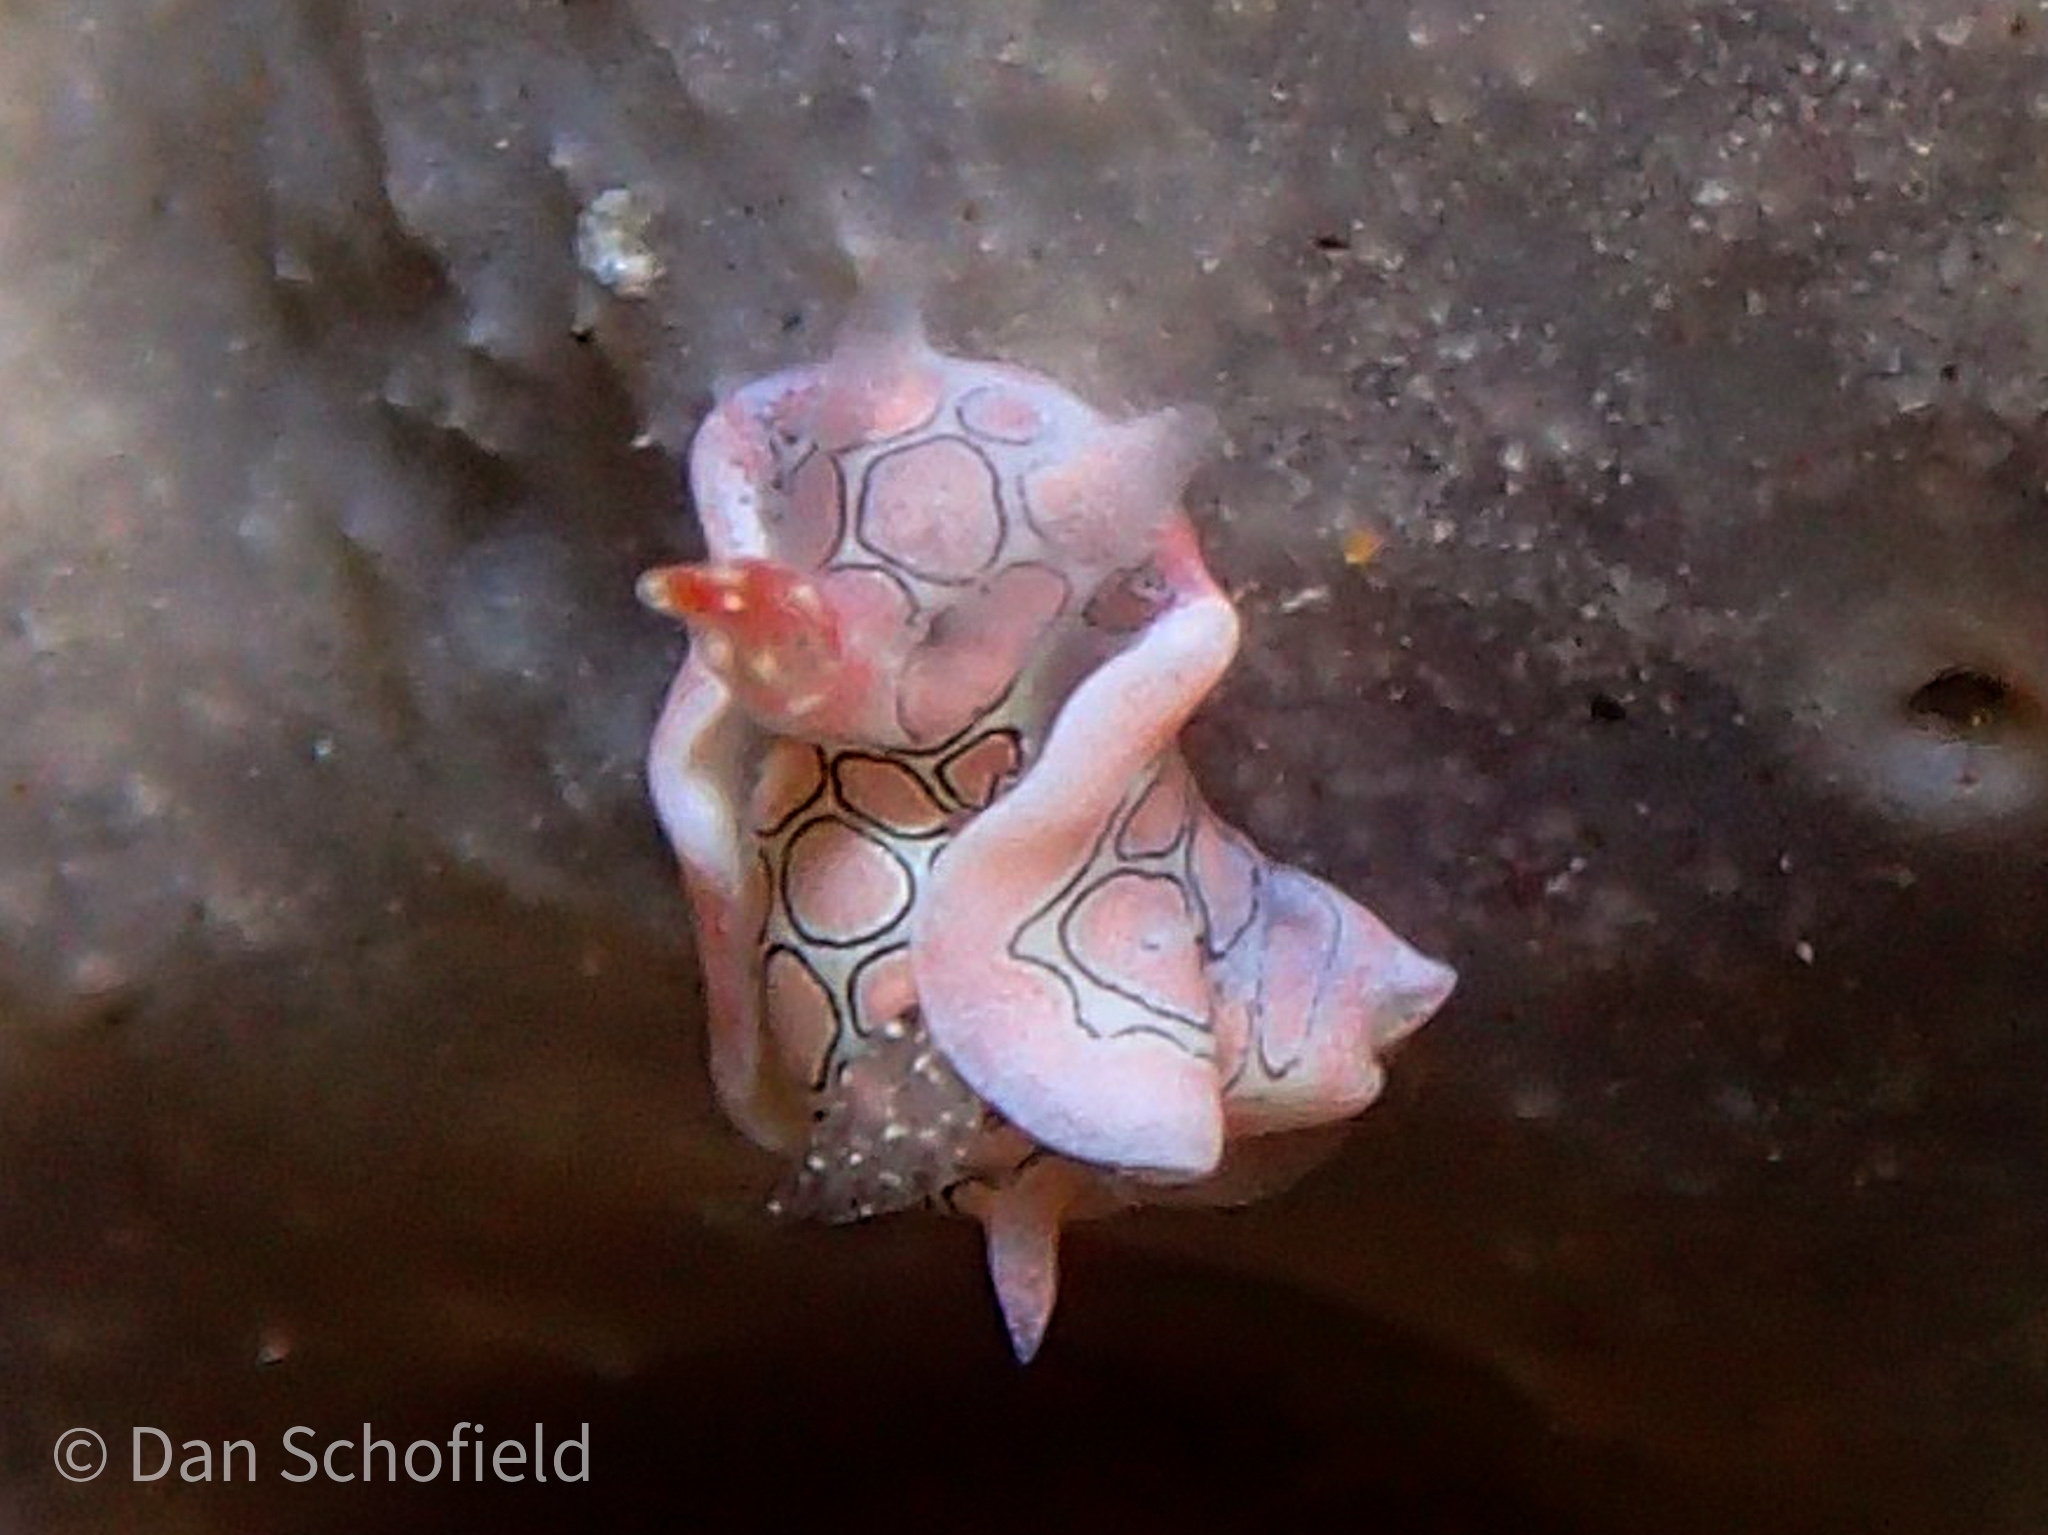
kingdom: Animalia
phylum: Mollusca
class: Gastropoda
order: Cephalaspidea
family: Gastropteridae
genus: Sagaminopteron
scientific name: Sagaminopteron psychedelicum
